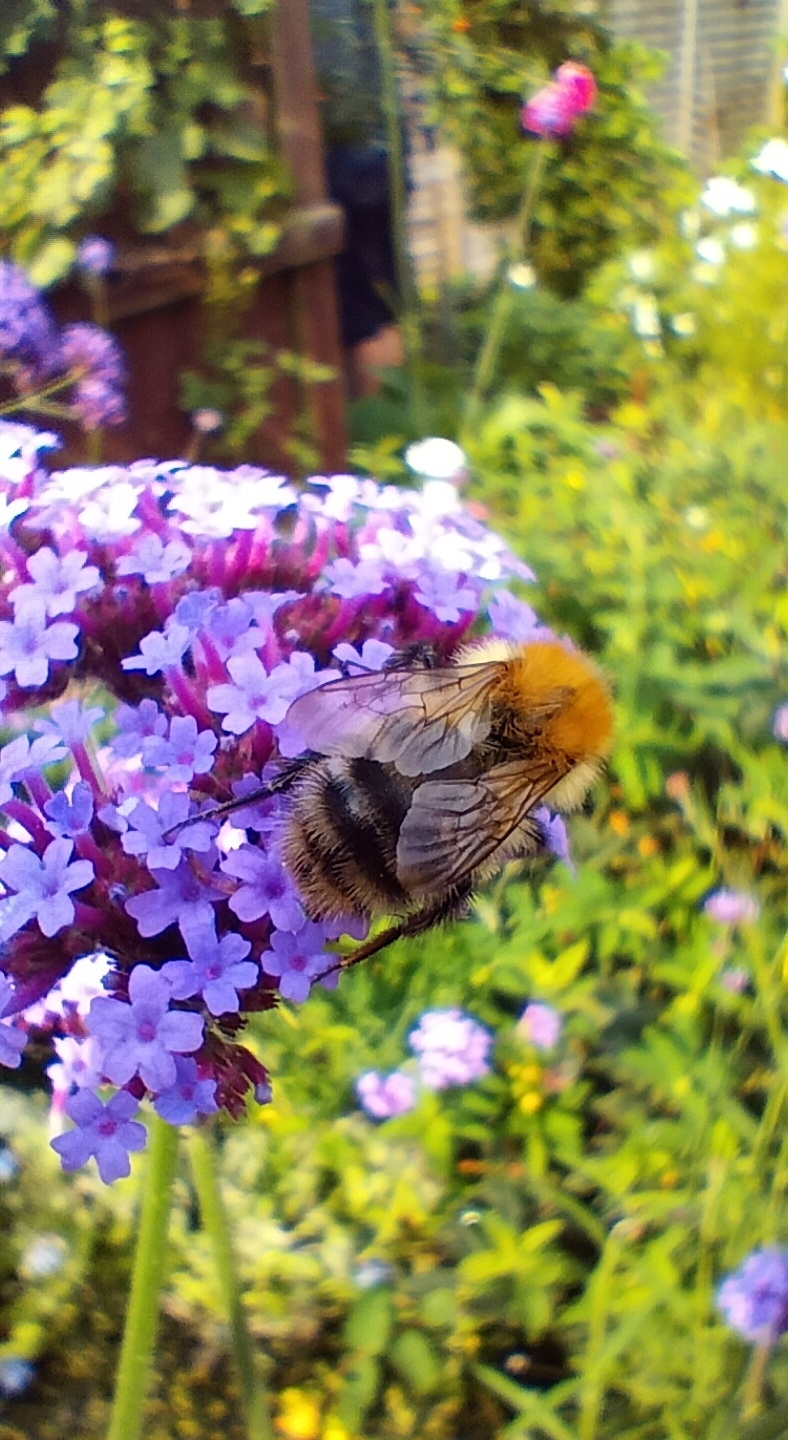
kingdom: Animalia
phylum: Arthropoda
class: Insecta
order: Hymenoptera
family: Apidae
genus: Bombus
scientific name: Bombus pascuorum
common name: Common carder bee
